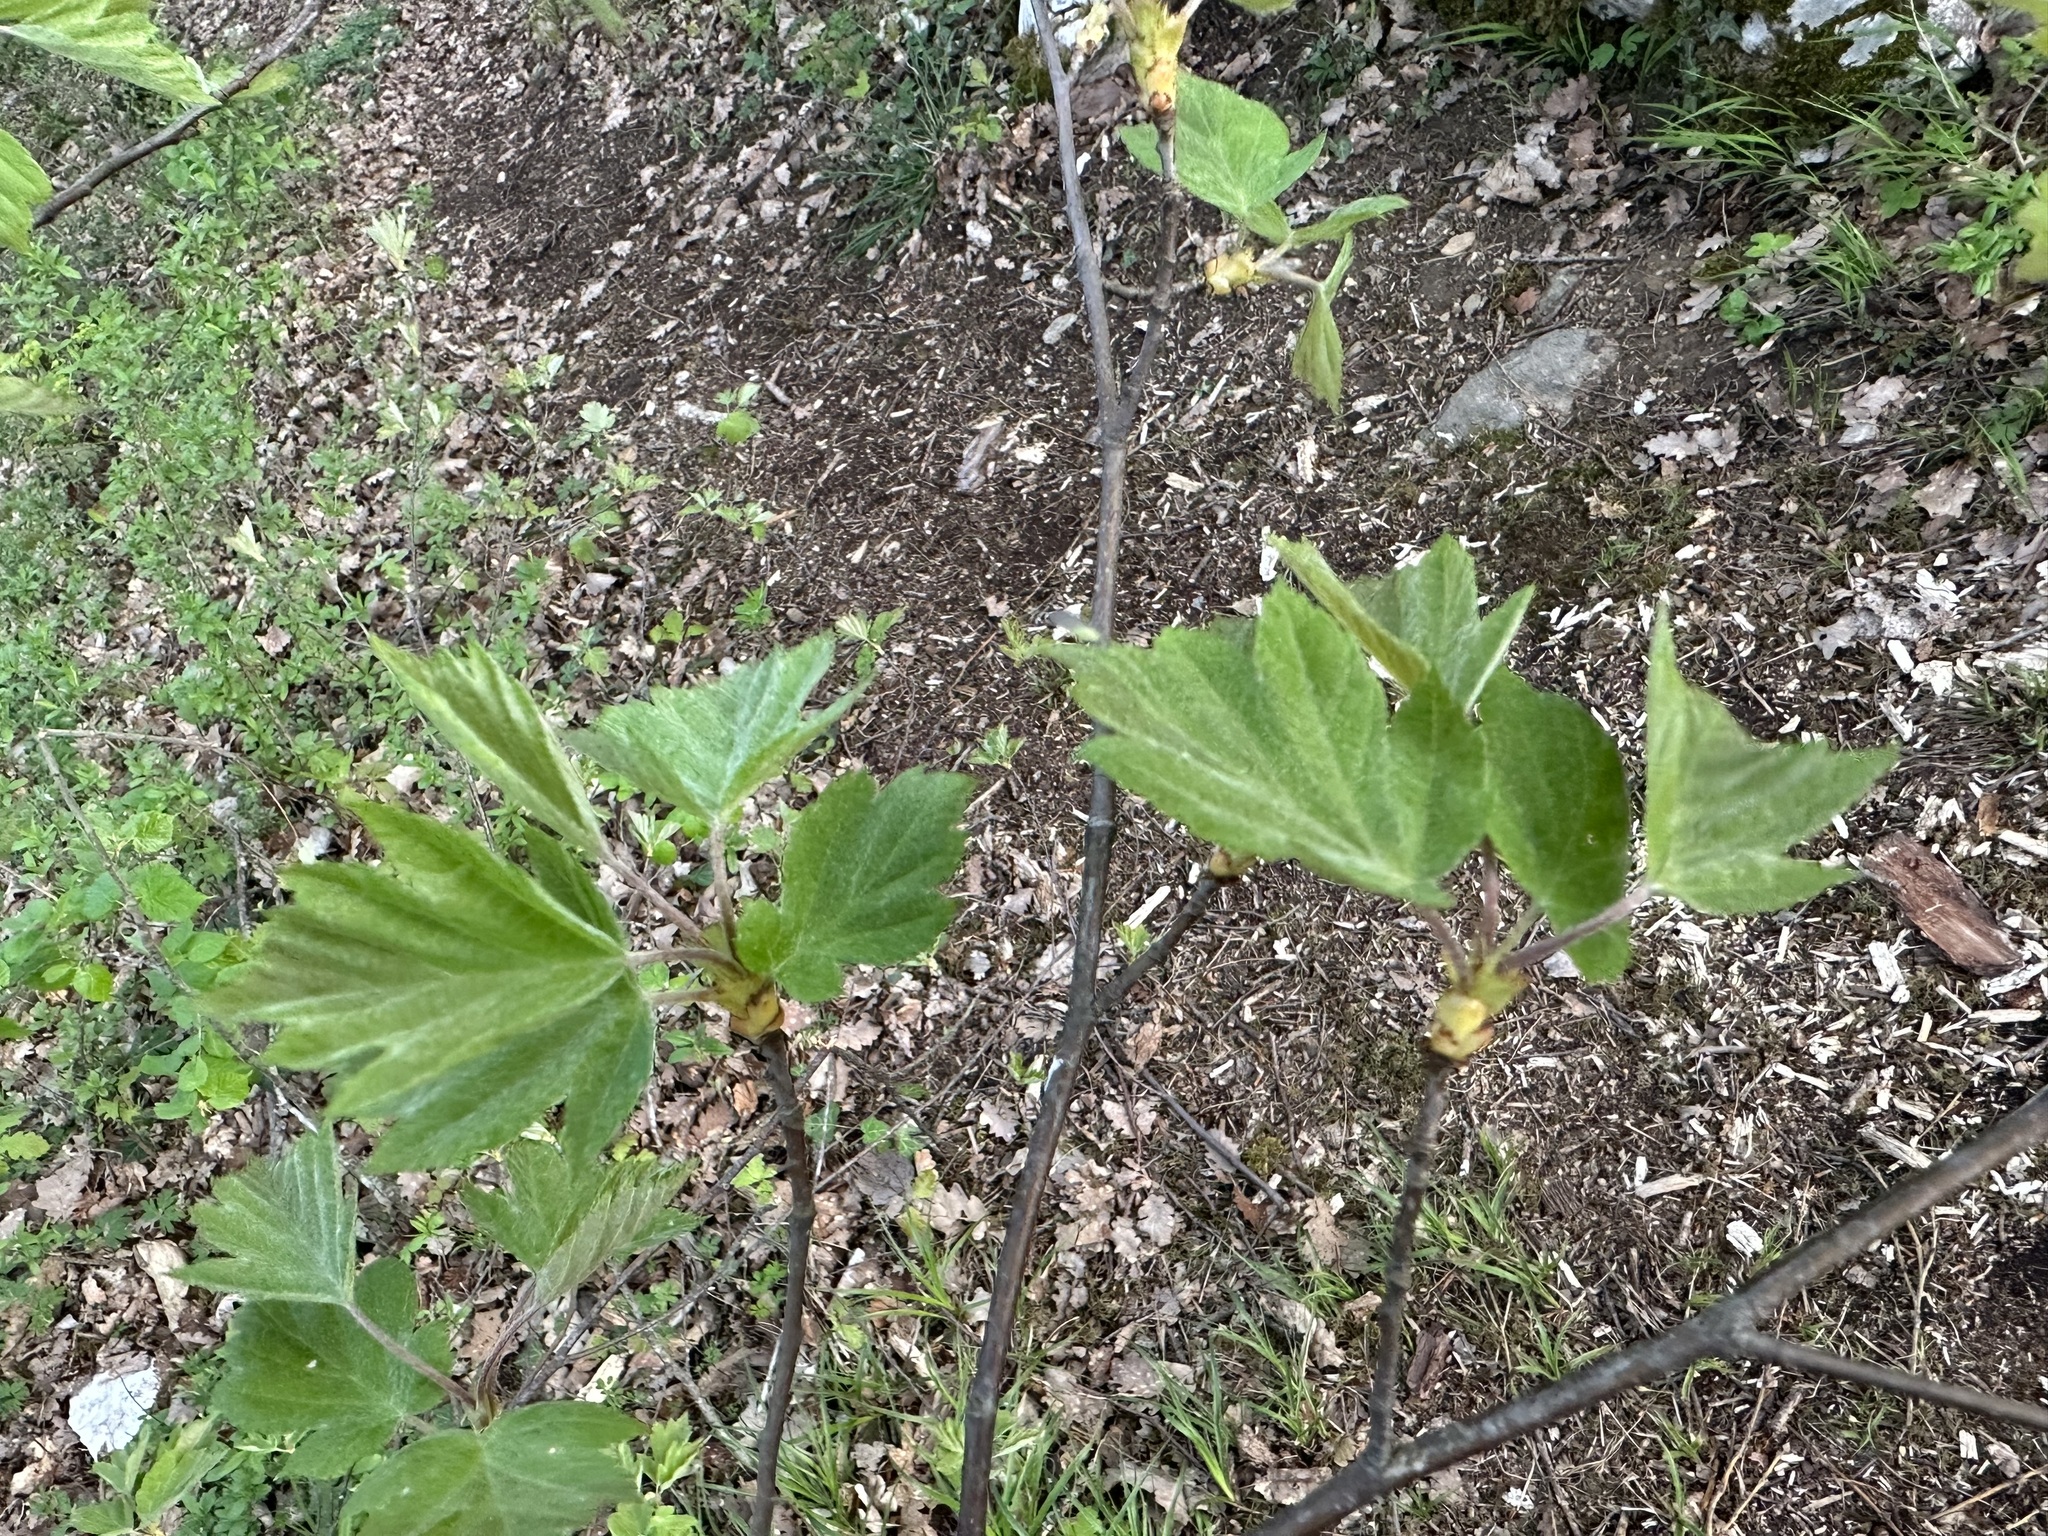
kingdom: Plantae
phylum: Tracheophyta
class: Magnoliopsida
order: Rosales
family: Rosaceae
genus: Torminalis
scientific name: Torminalis glaberrima
